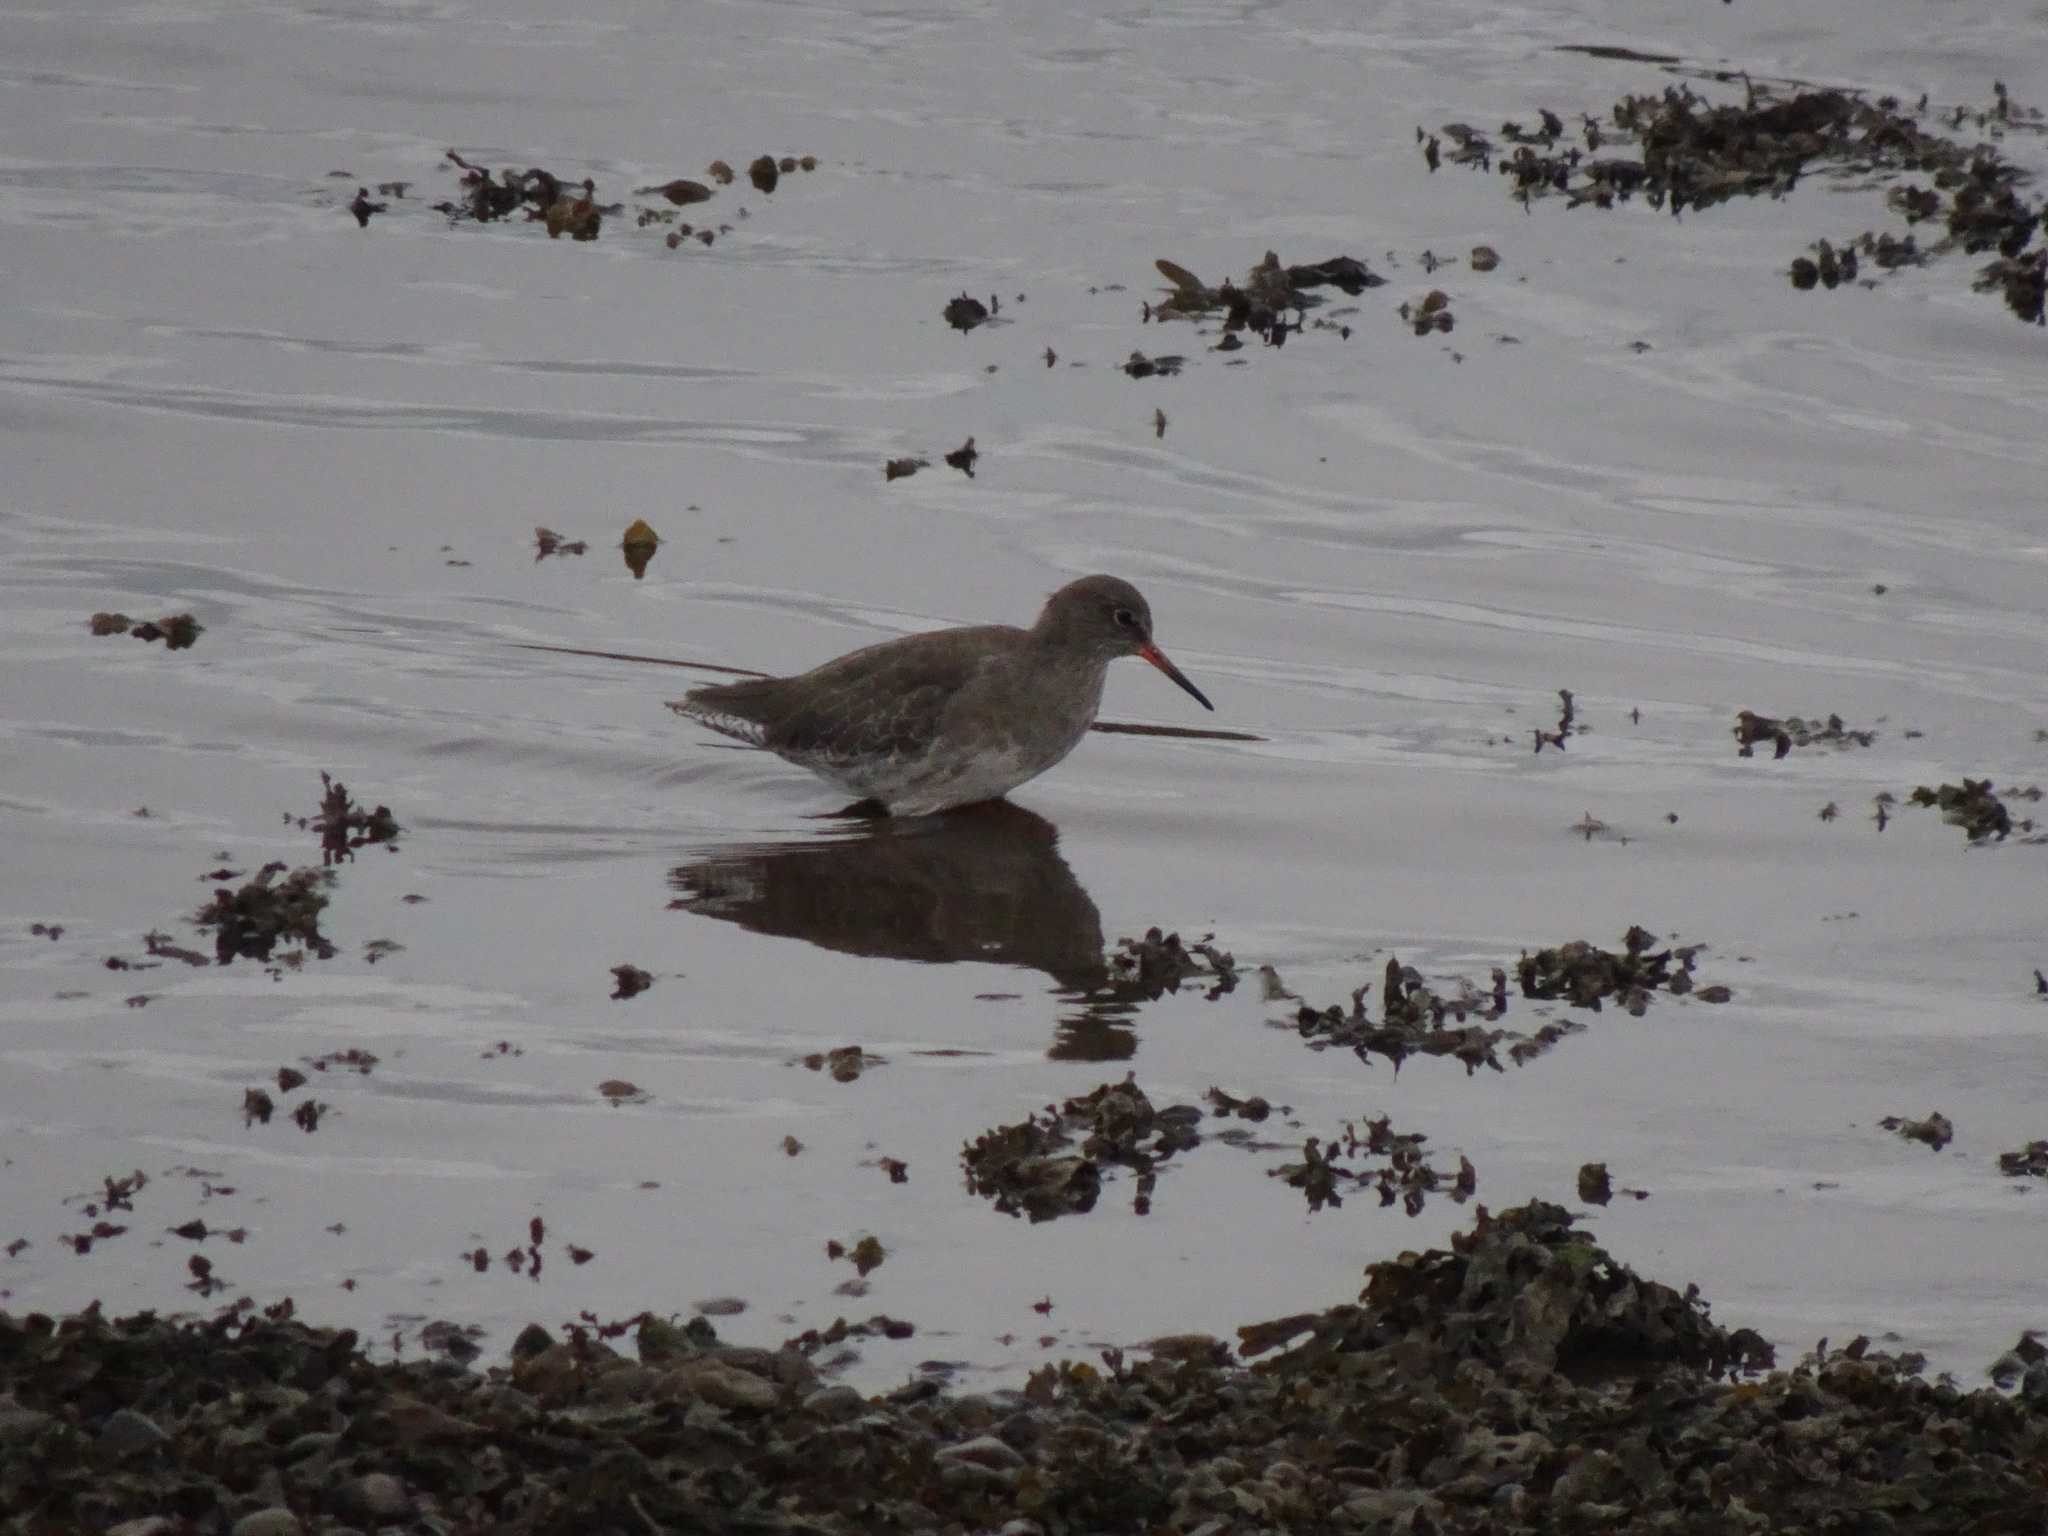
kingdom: Animalia
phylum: Chordata
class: Aves
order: Charadriiformes
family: Scolopacidae
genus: Tringa
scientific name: Tringa totanus
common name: Common redshank
